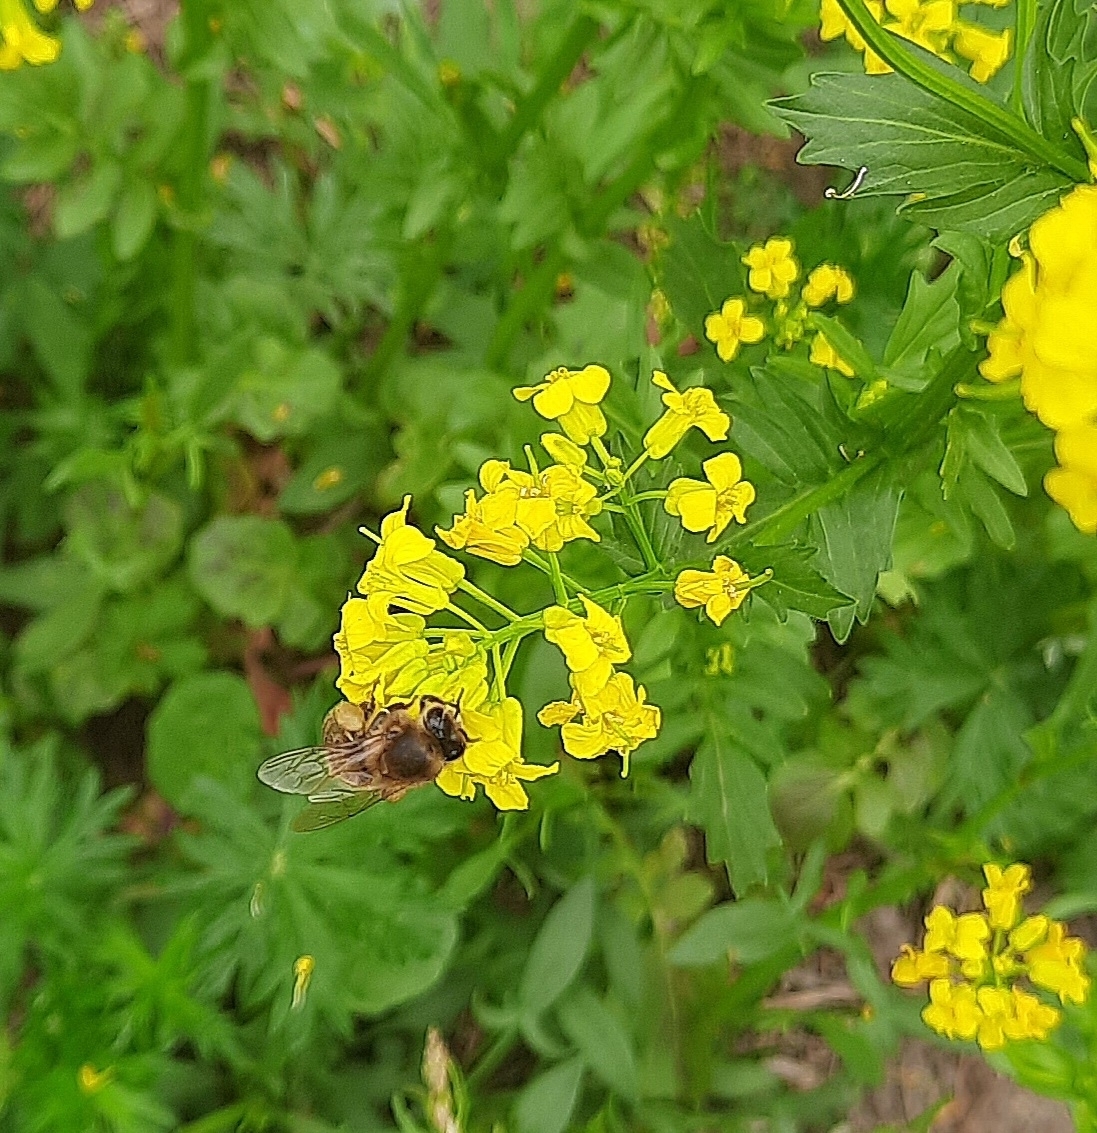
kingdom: Animalia
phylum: Arthropoda
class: Insecta
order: Hymenoptera
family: Apidae
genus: Apis
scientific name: Apis mellifera
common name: Honey bee
